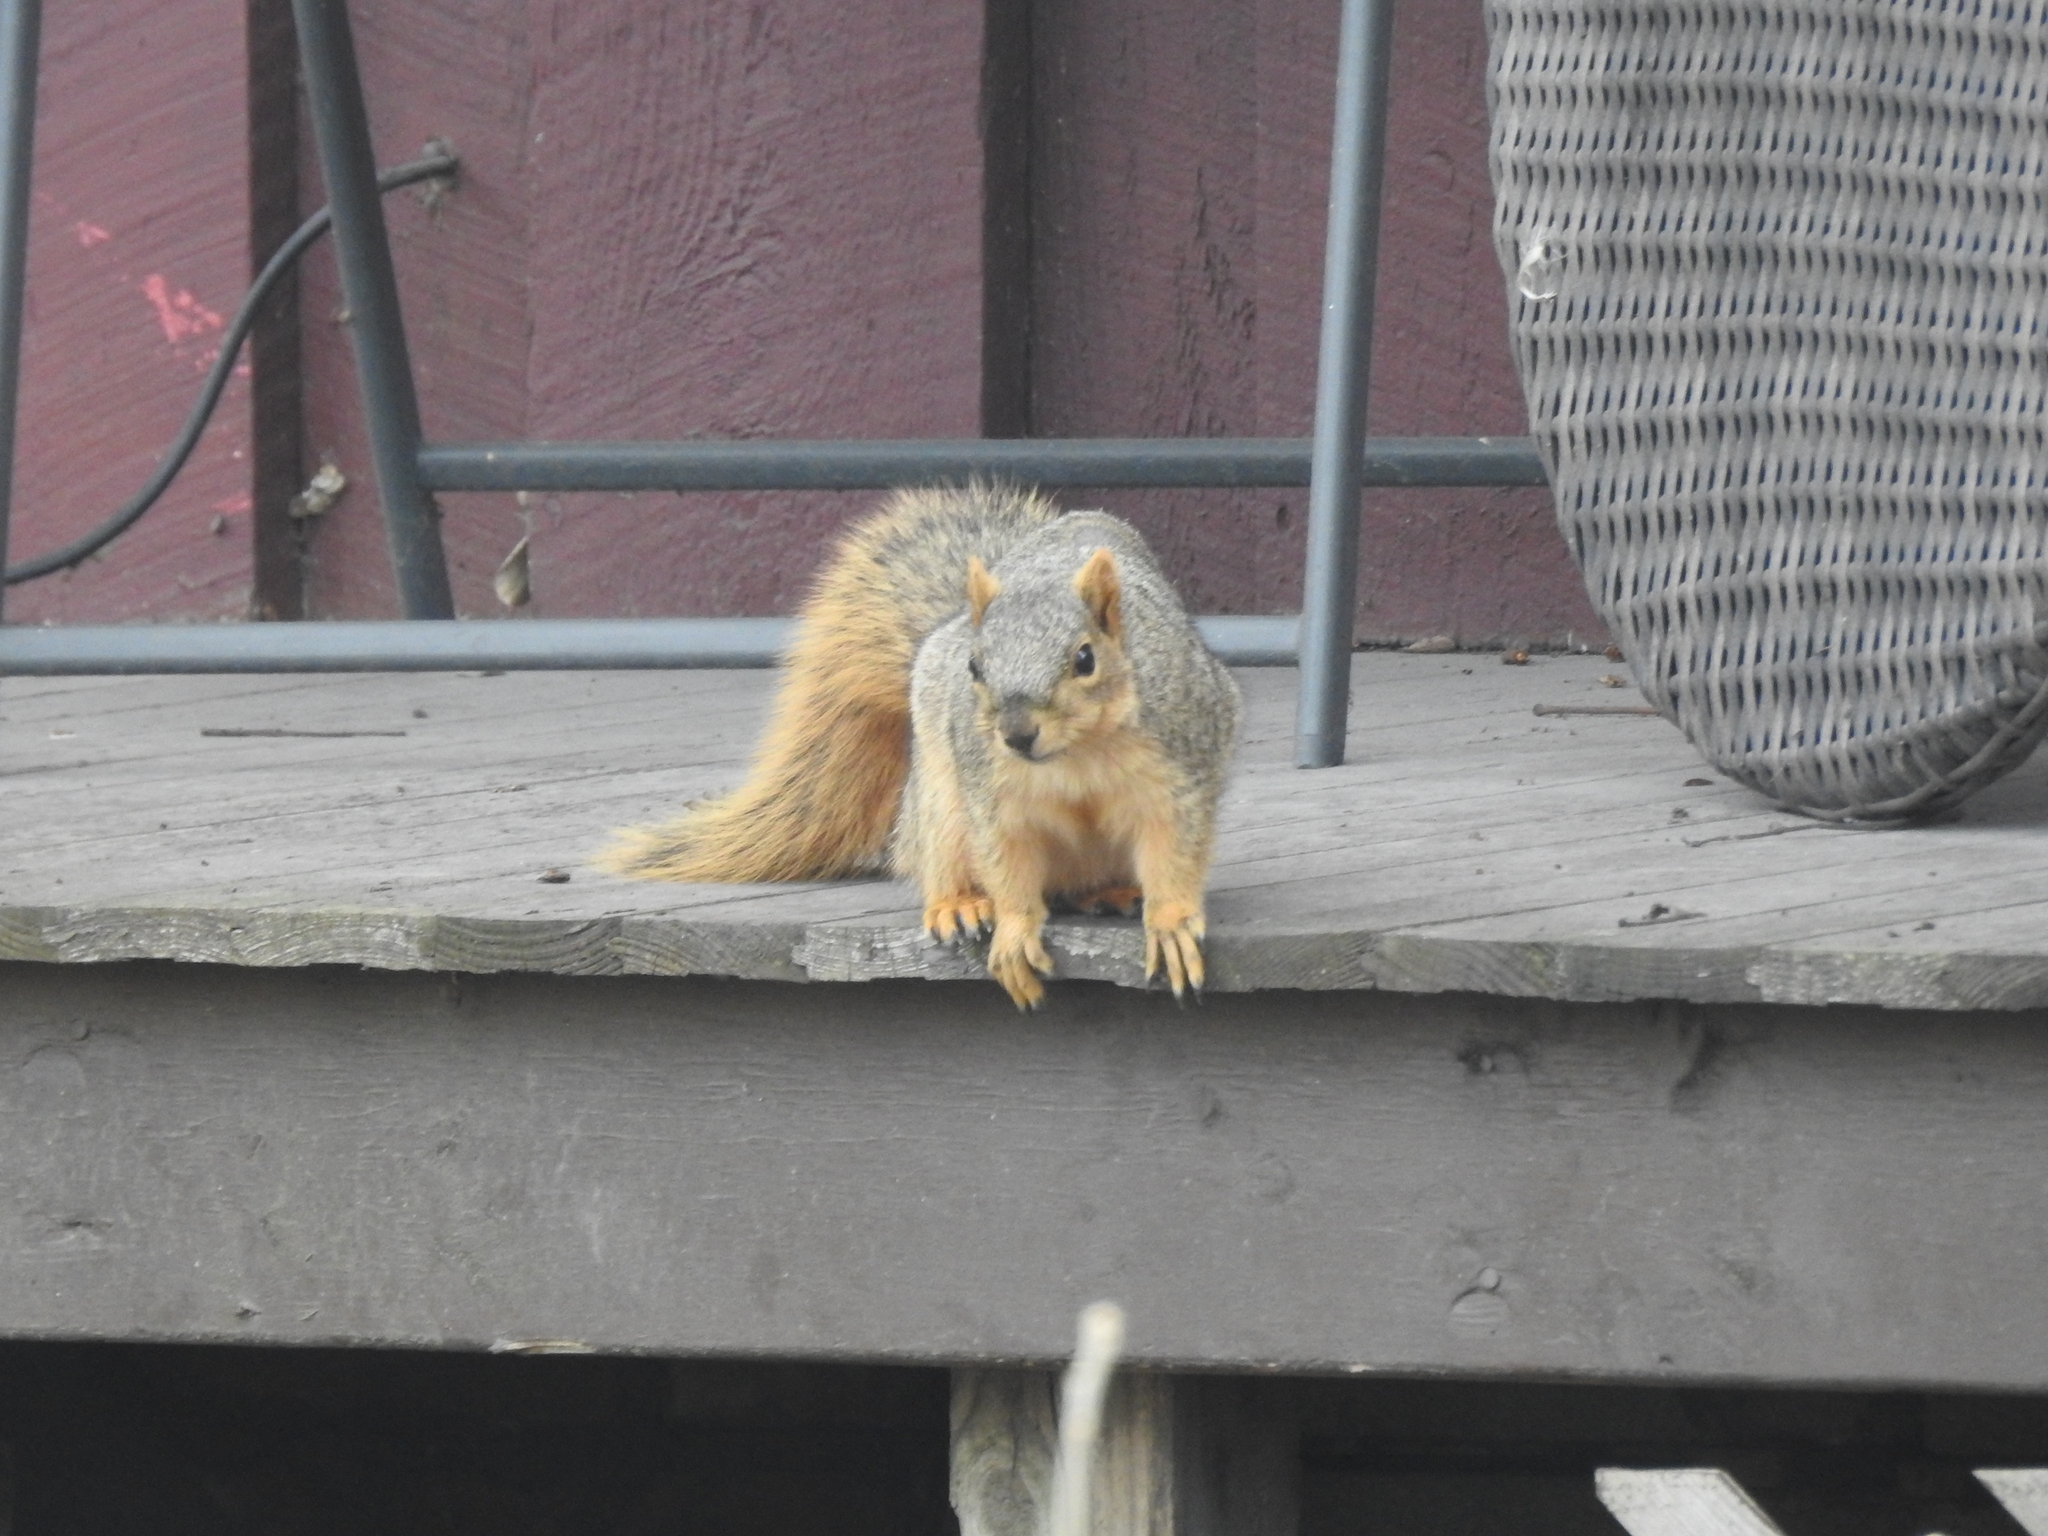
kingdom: Animalia
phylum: Chordata
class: Mammalia
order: Rodentia
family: Sciuridae
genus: Sciurus
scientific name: Sciurus niger
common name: Fox squirrel
